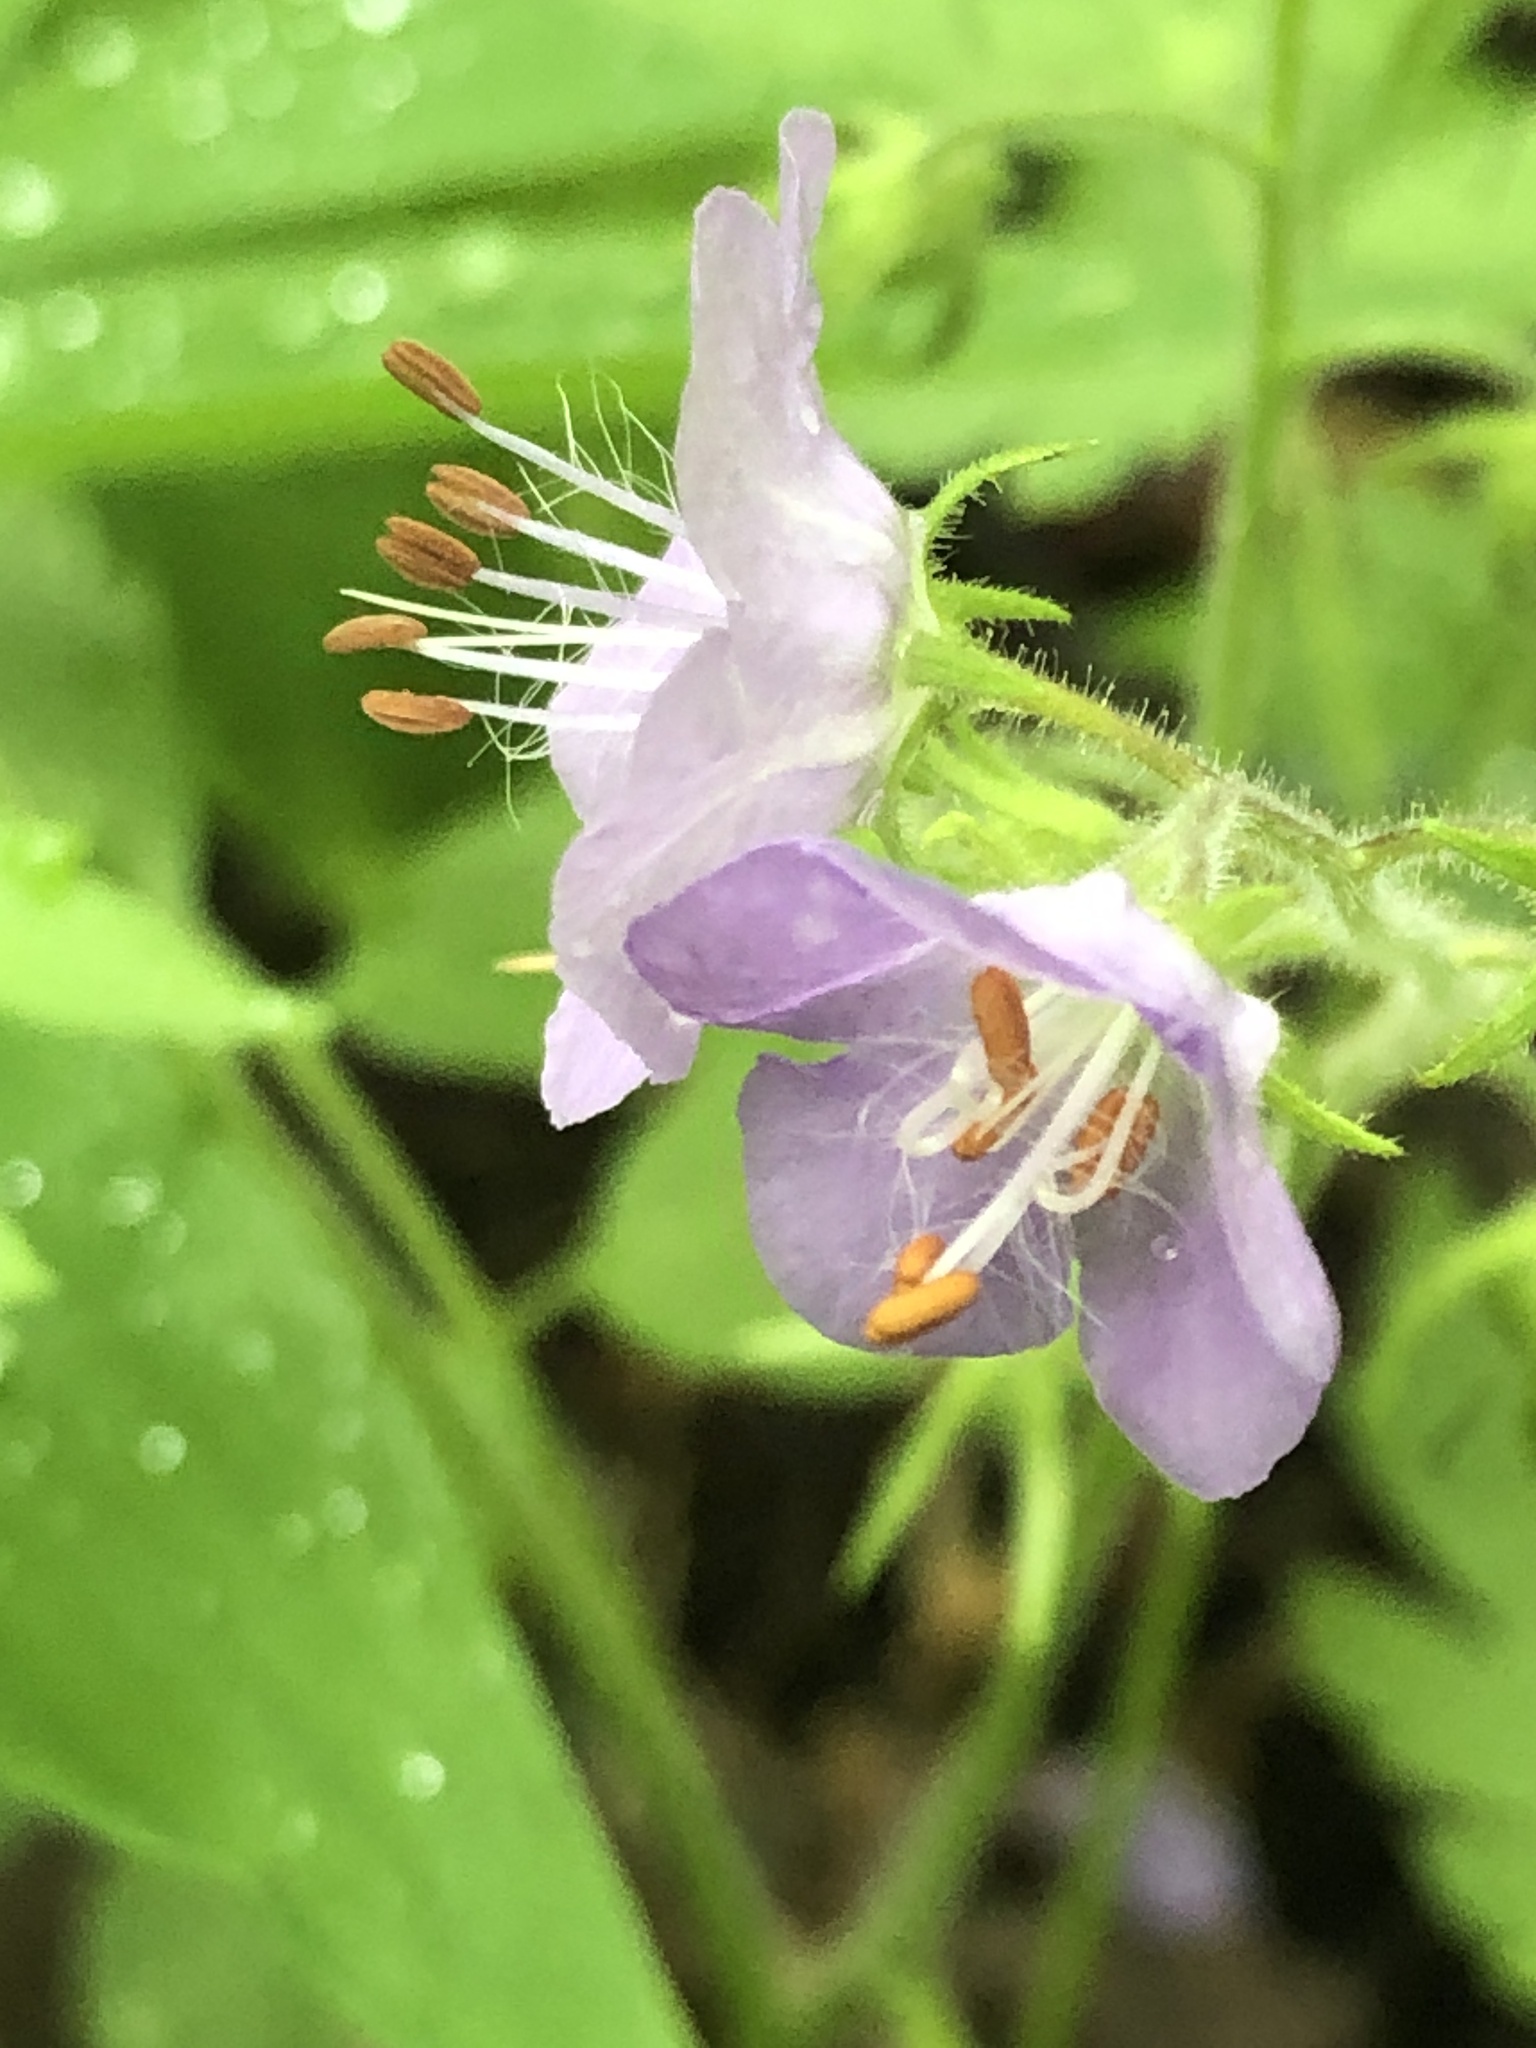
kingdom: Plantae
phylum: Tracheophyta
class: Magnoliopsida
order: Boraginales
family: Hydrophyllaceae
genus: Phacelia
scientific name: Phacelia bipinnatifida
